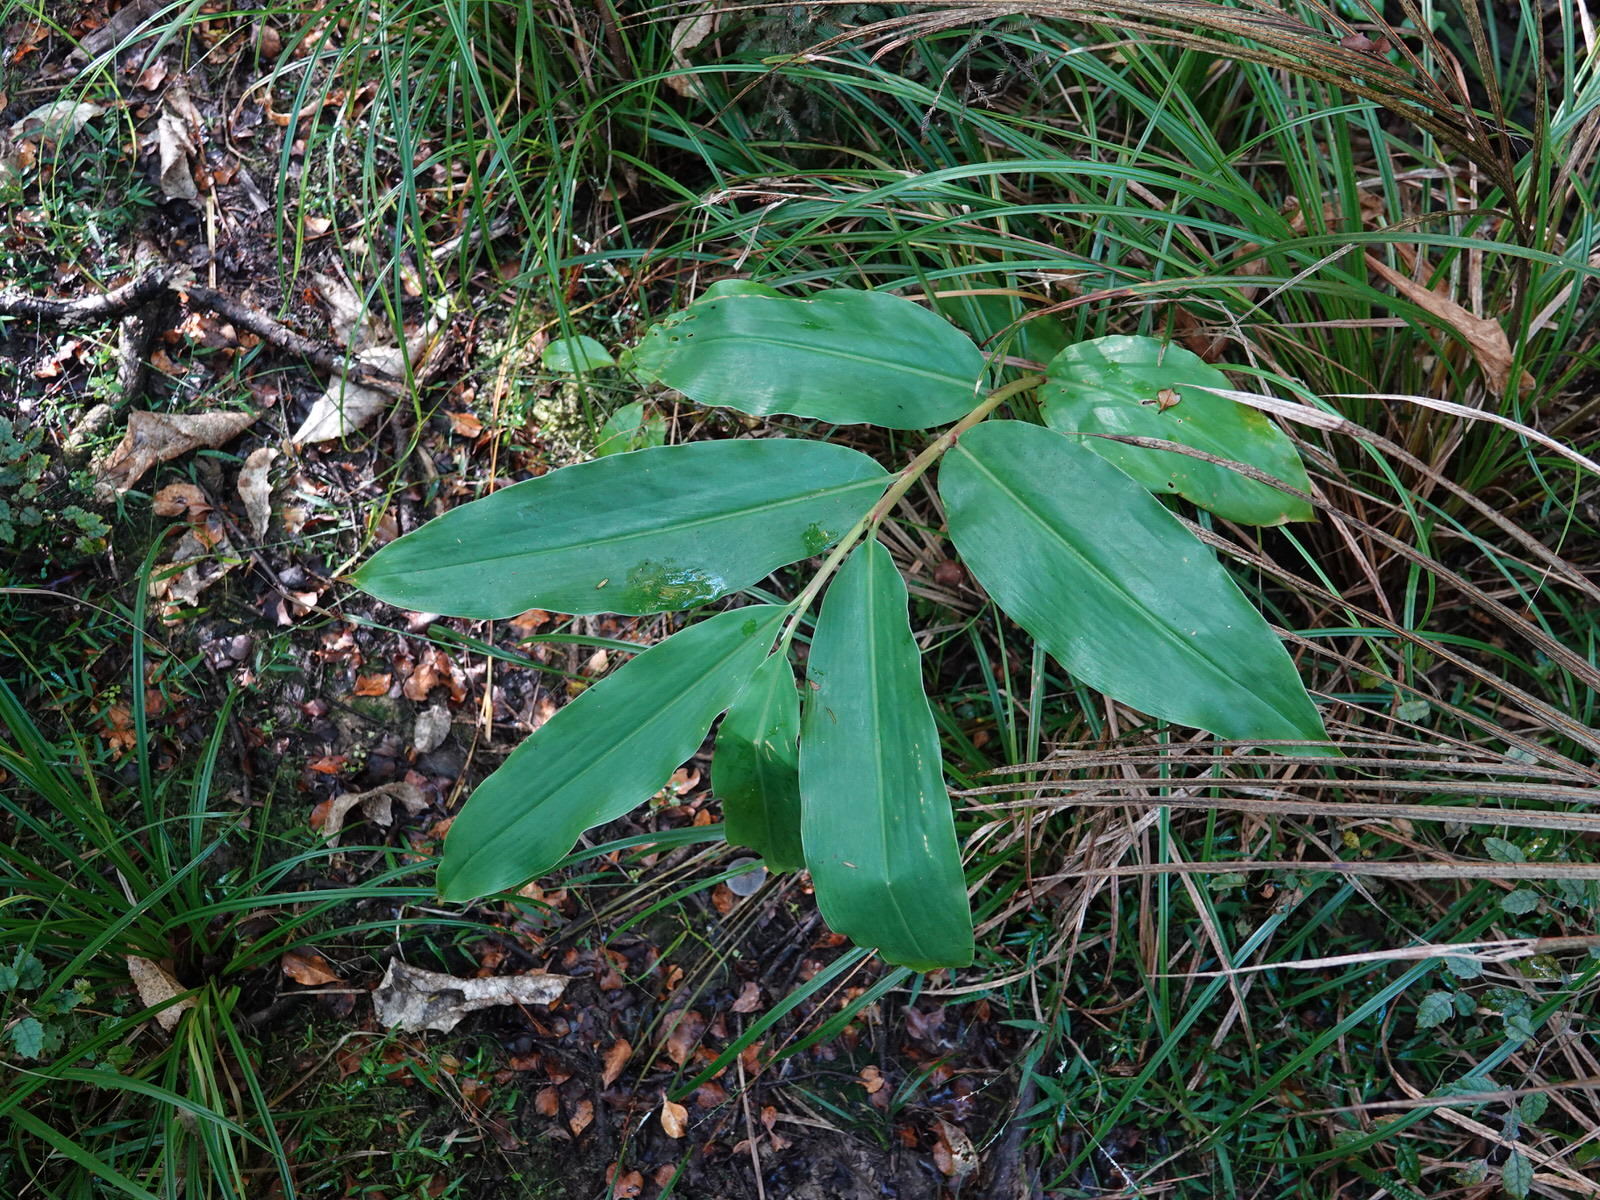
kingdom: Plantae
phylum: Tracheophyta
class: Liliopsida
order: Zingiberales
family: Zingiberaceae
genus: Hedychium
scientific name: Hedychium gardnerianum
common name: Himalayan ginger
